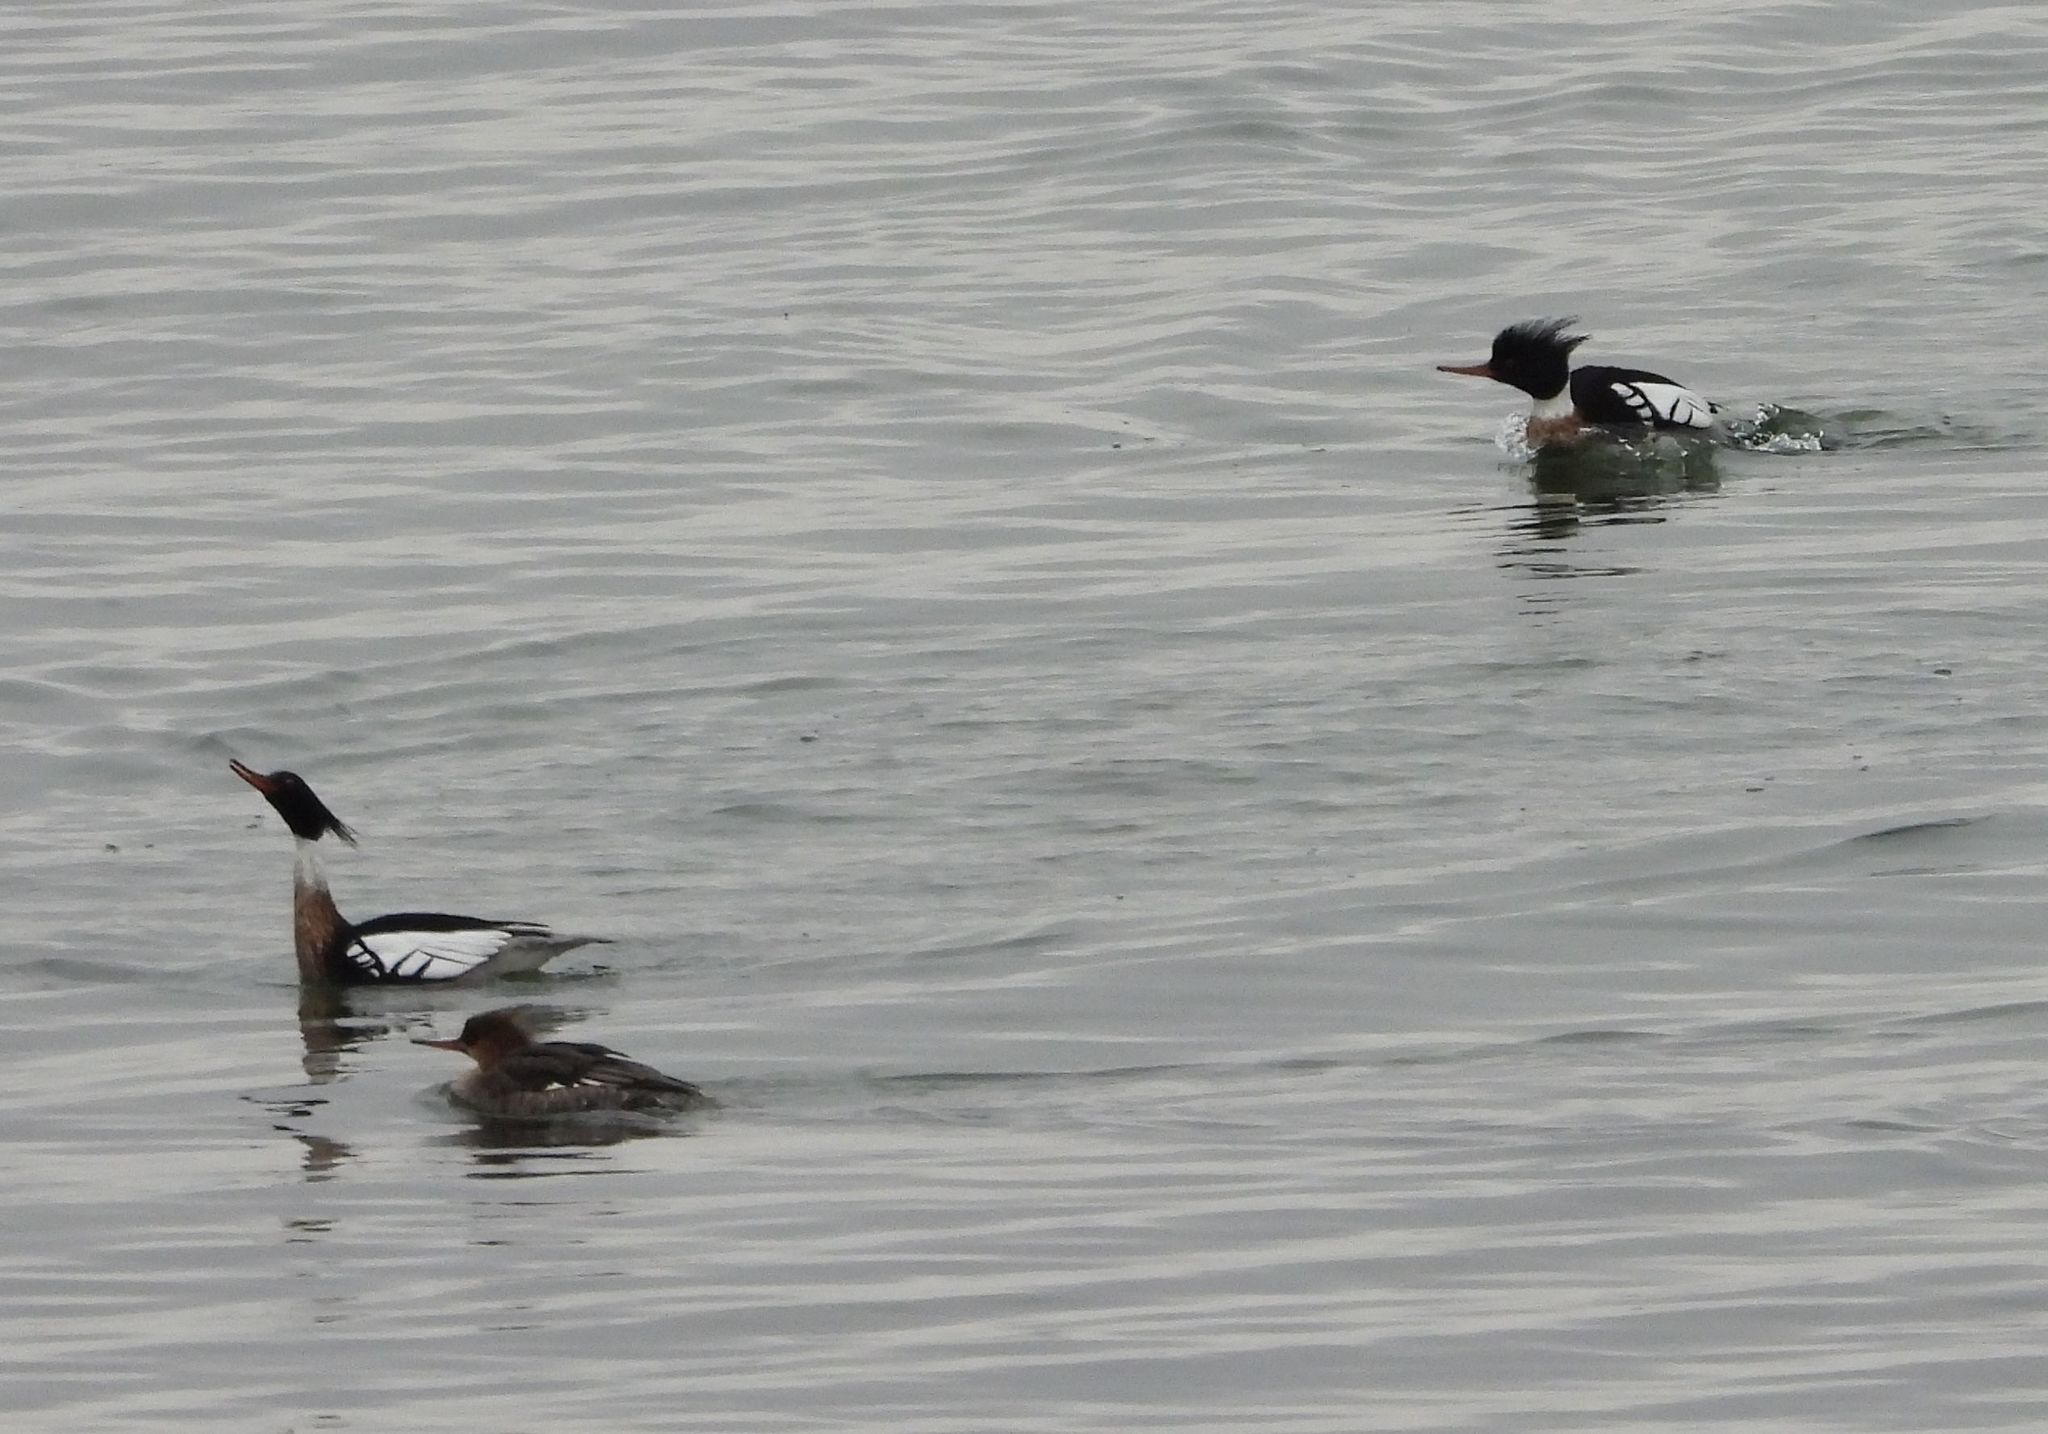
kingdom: Animalia
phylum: Chordata
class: Aves
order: Anseriformes
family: Anatidae
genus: Mergus
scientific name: Mergus serrator
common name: Red-breasted merganser
